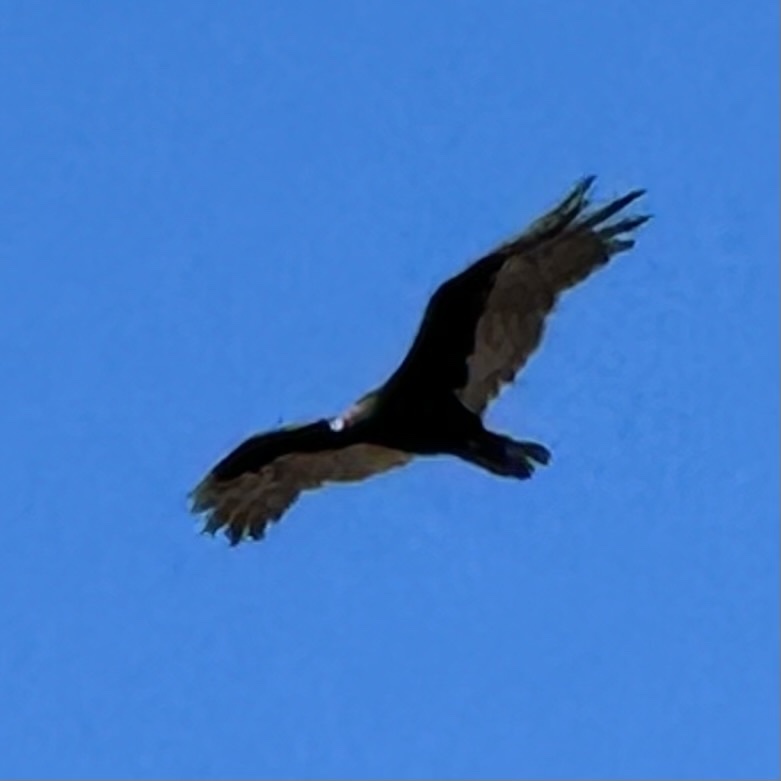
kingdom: Animalia
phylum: Chordata
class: Aves
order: Accipitriformes
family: Cathartidae
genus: Cathartes
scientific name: Cathartes aura
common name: Turkey vulture
